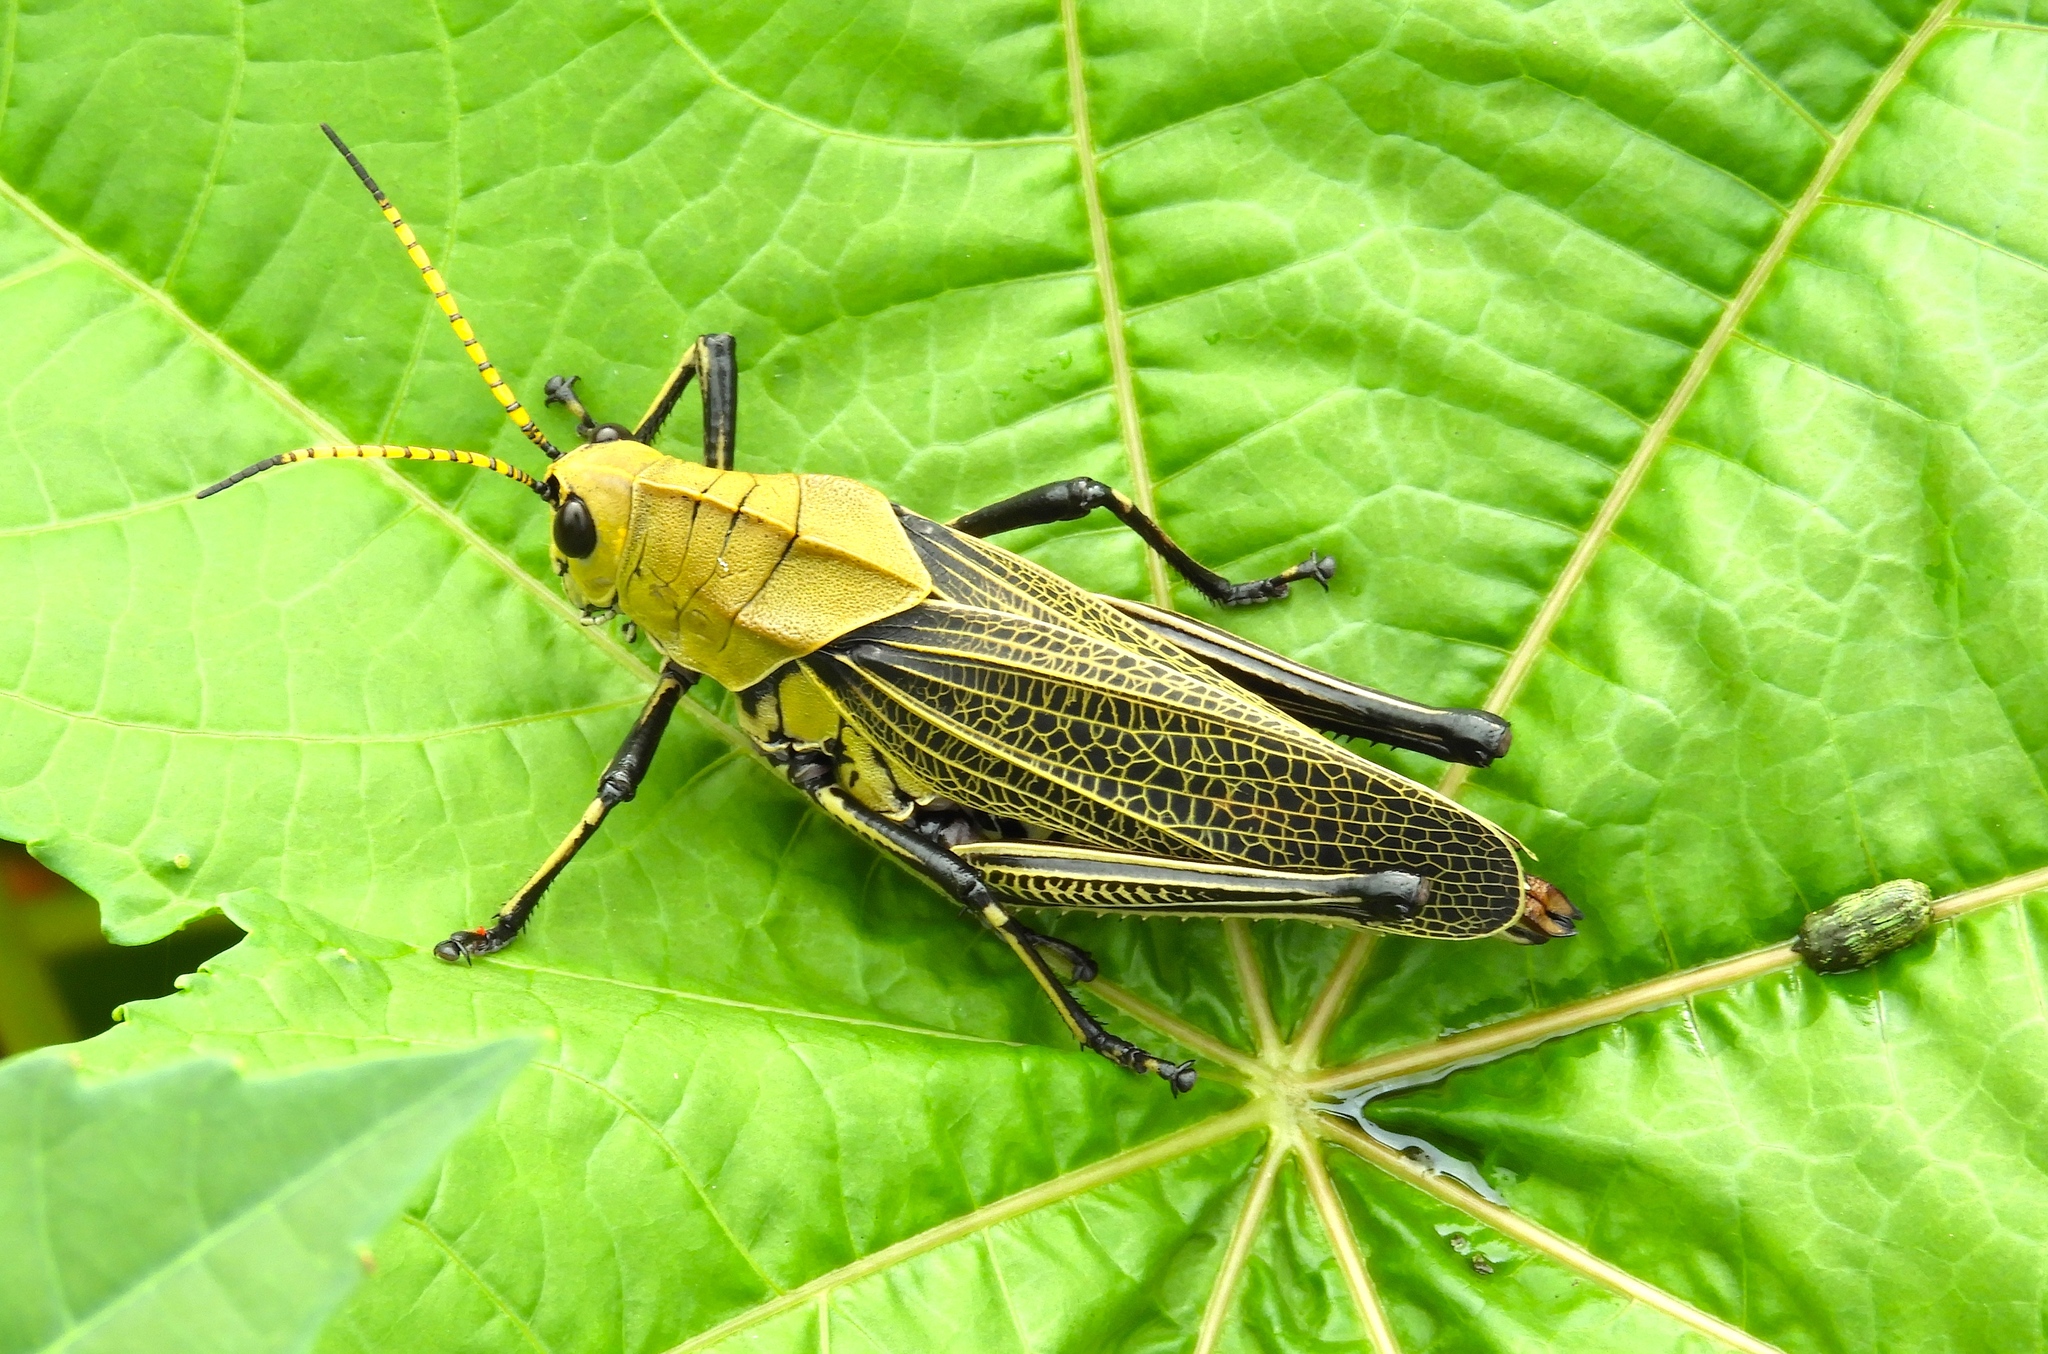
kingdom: Animalia
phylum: Arthropoda
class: Insecta
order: Orthoptera
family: Romaleidae
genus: Romalea
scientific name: Romalea
